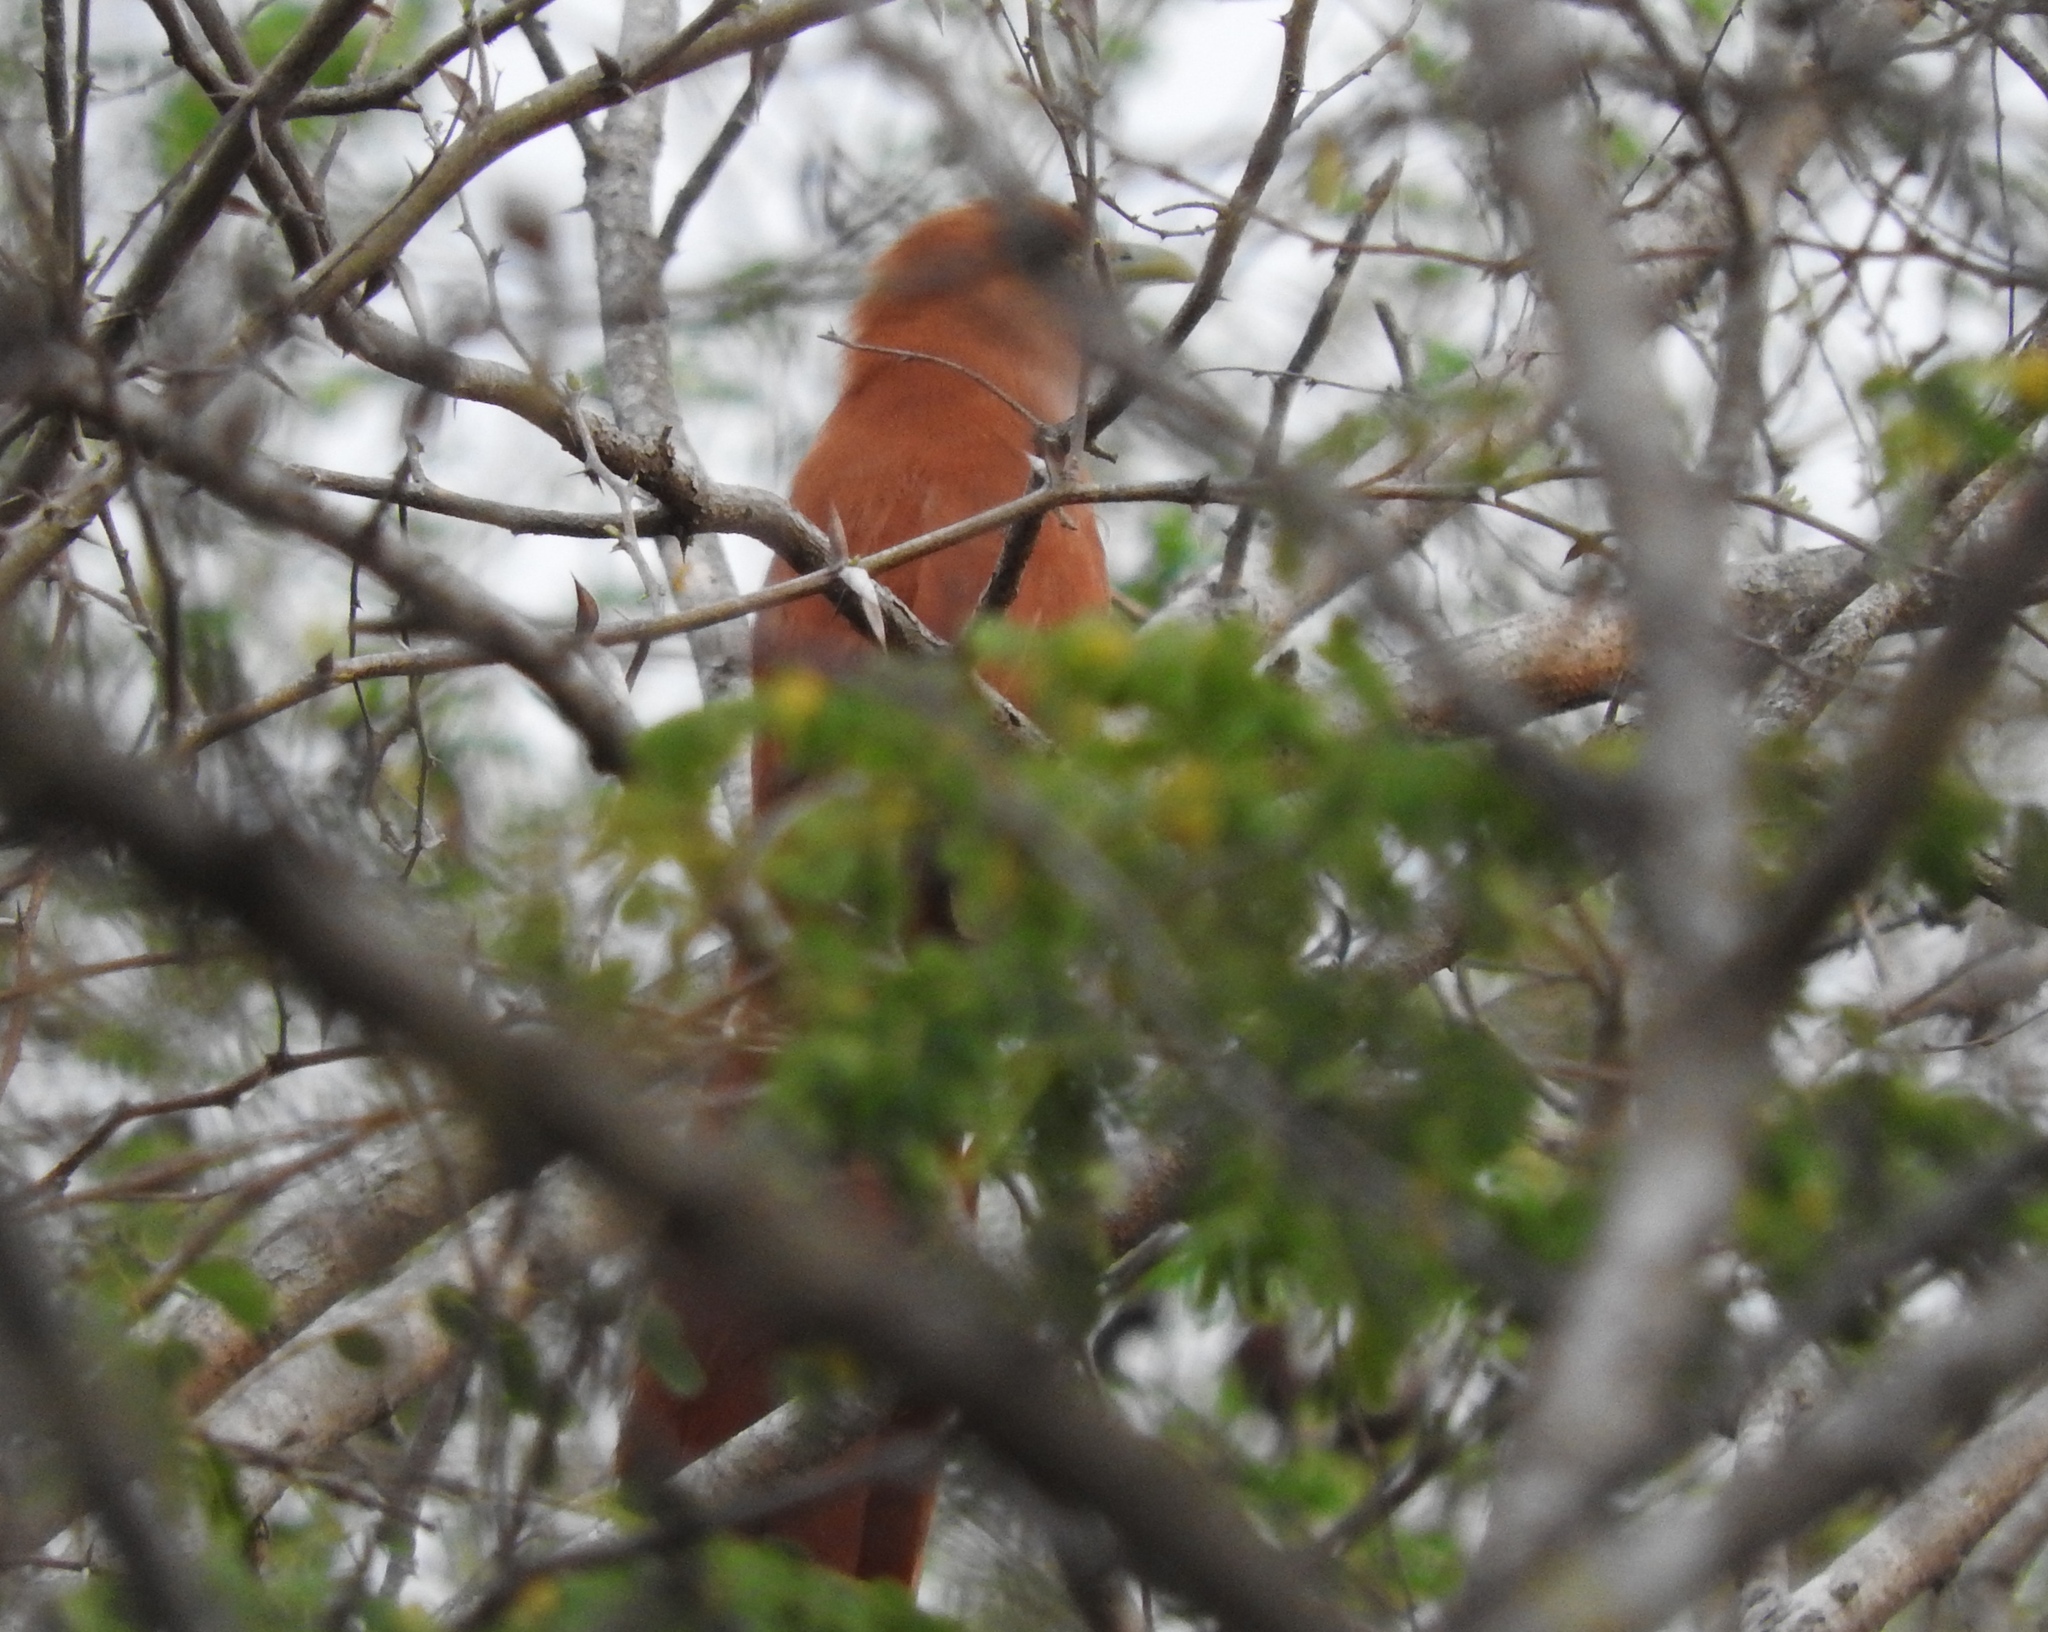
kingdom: Animalia
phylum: Chordata
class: Aves
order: Cuculiformes
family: Cuculidae
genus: Piaya
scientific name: Piaya cayana
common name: Squirrel cuckoo
